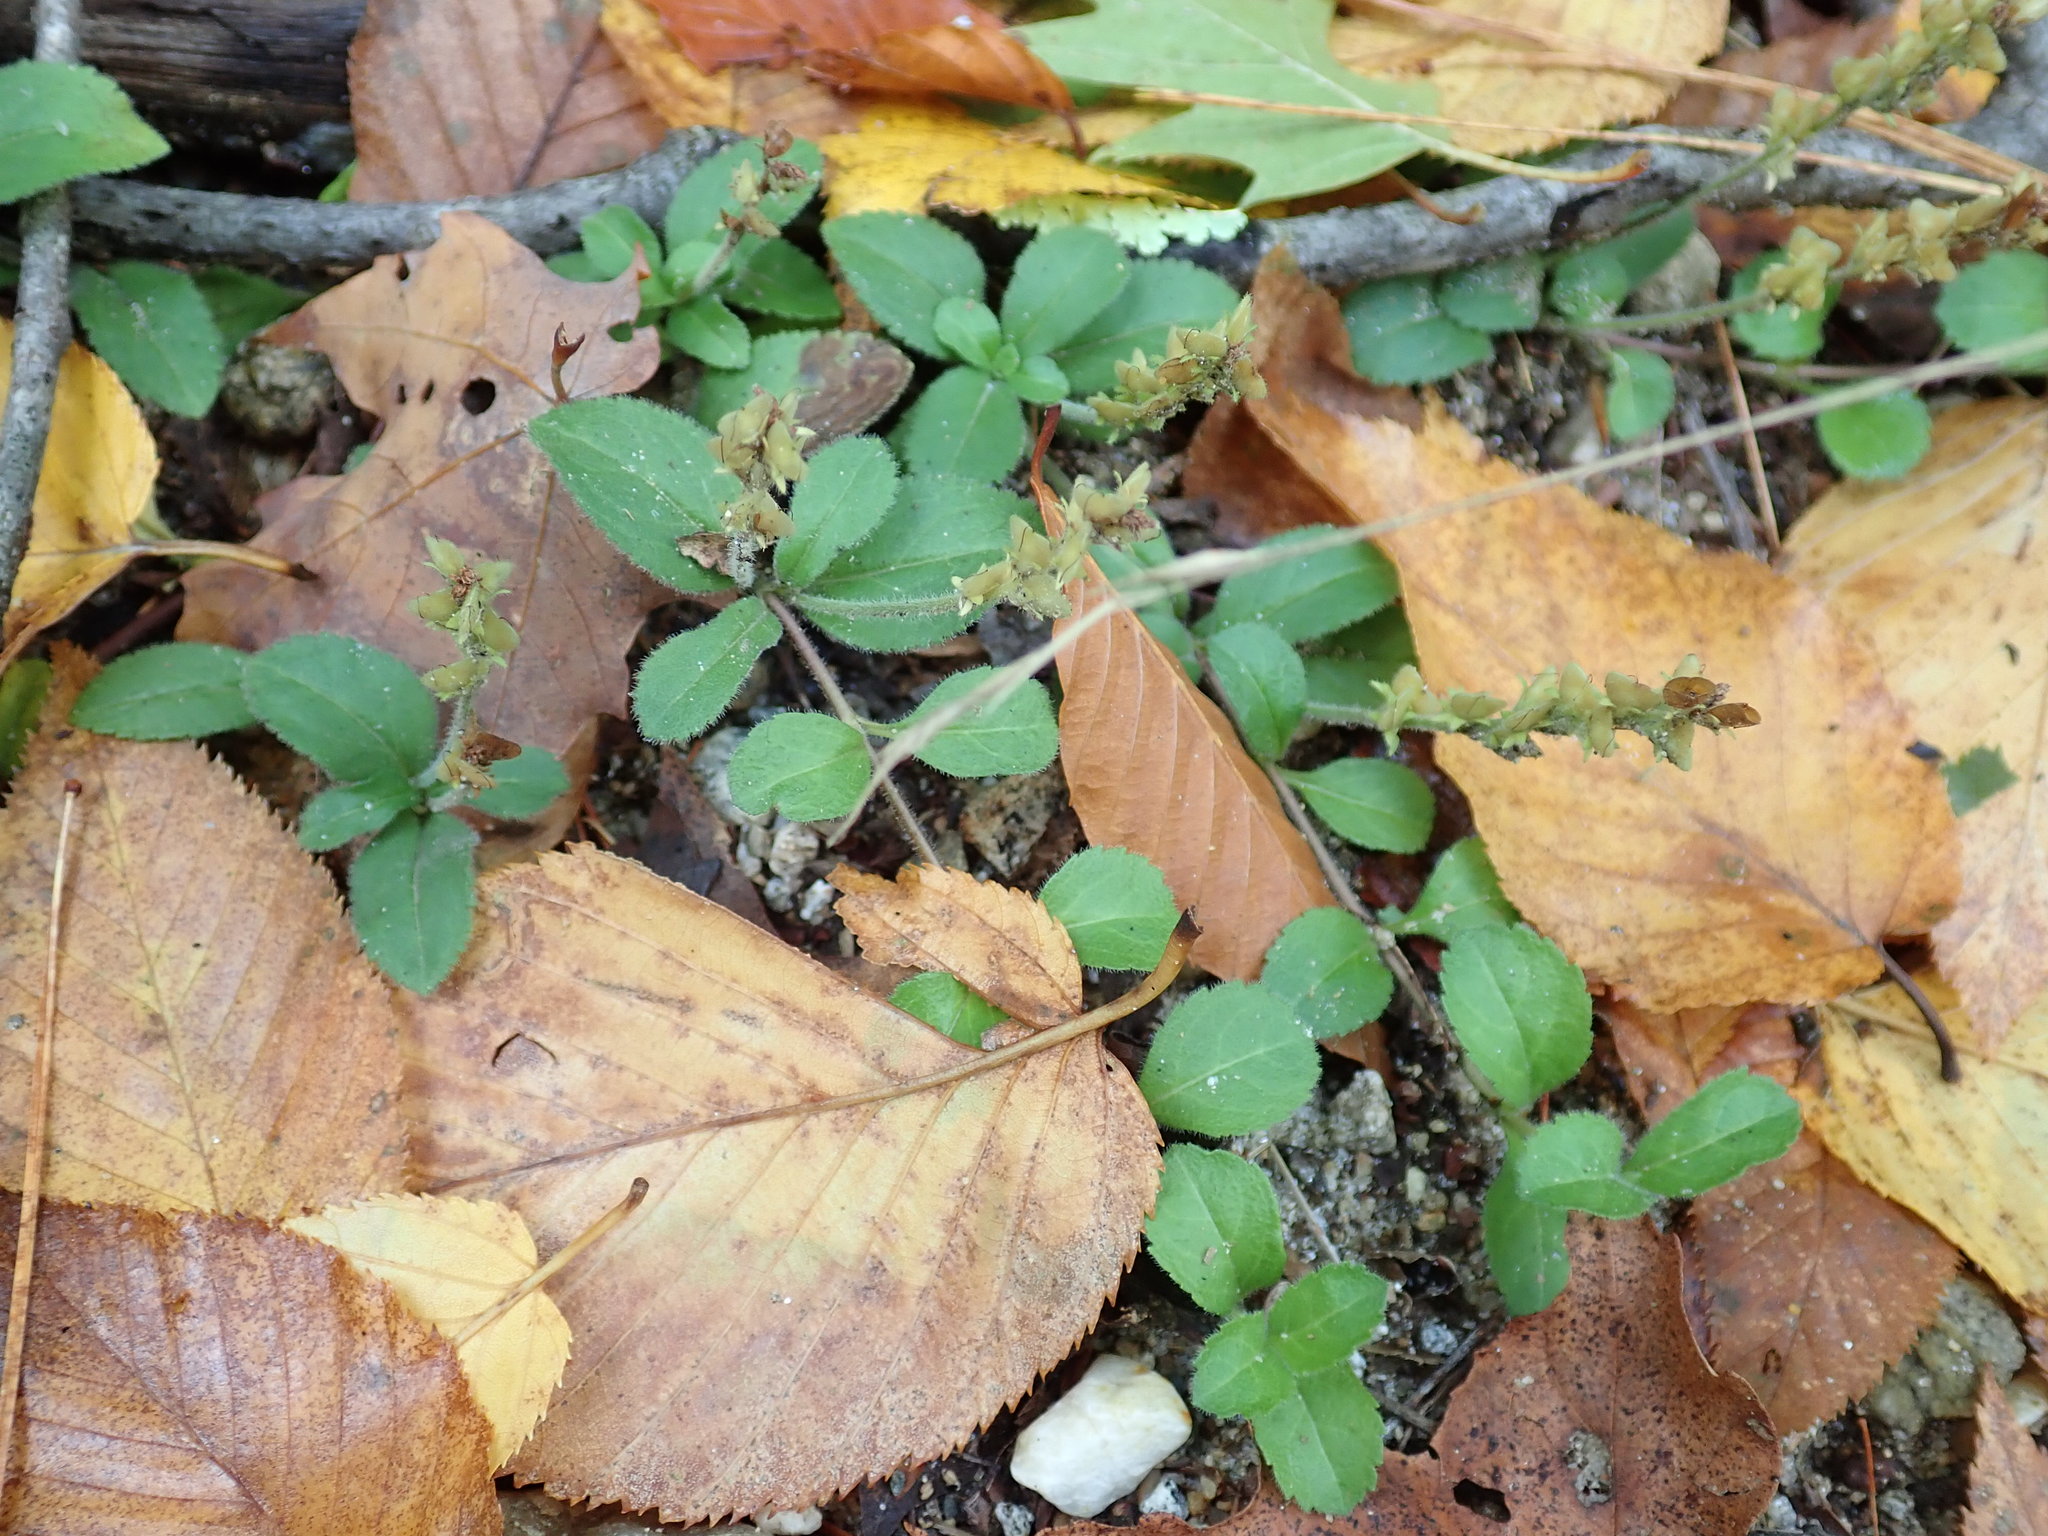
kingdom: Plantae
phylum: Tracheophyta
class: Magnoliopsida
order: Lamiales
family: Plantaginaceae
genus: Veronica
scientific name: Veronica officinalis
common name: Common speedwell
